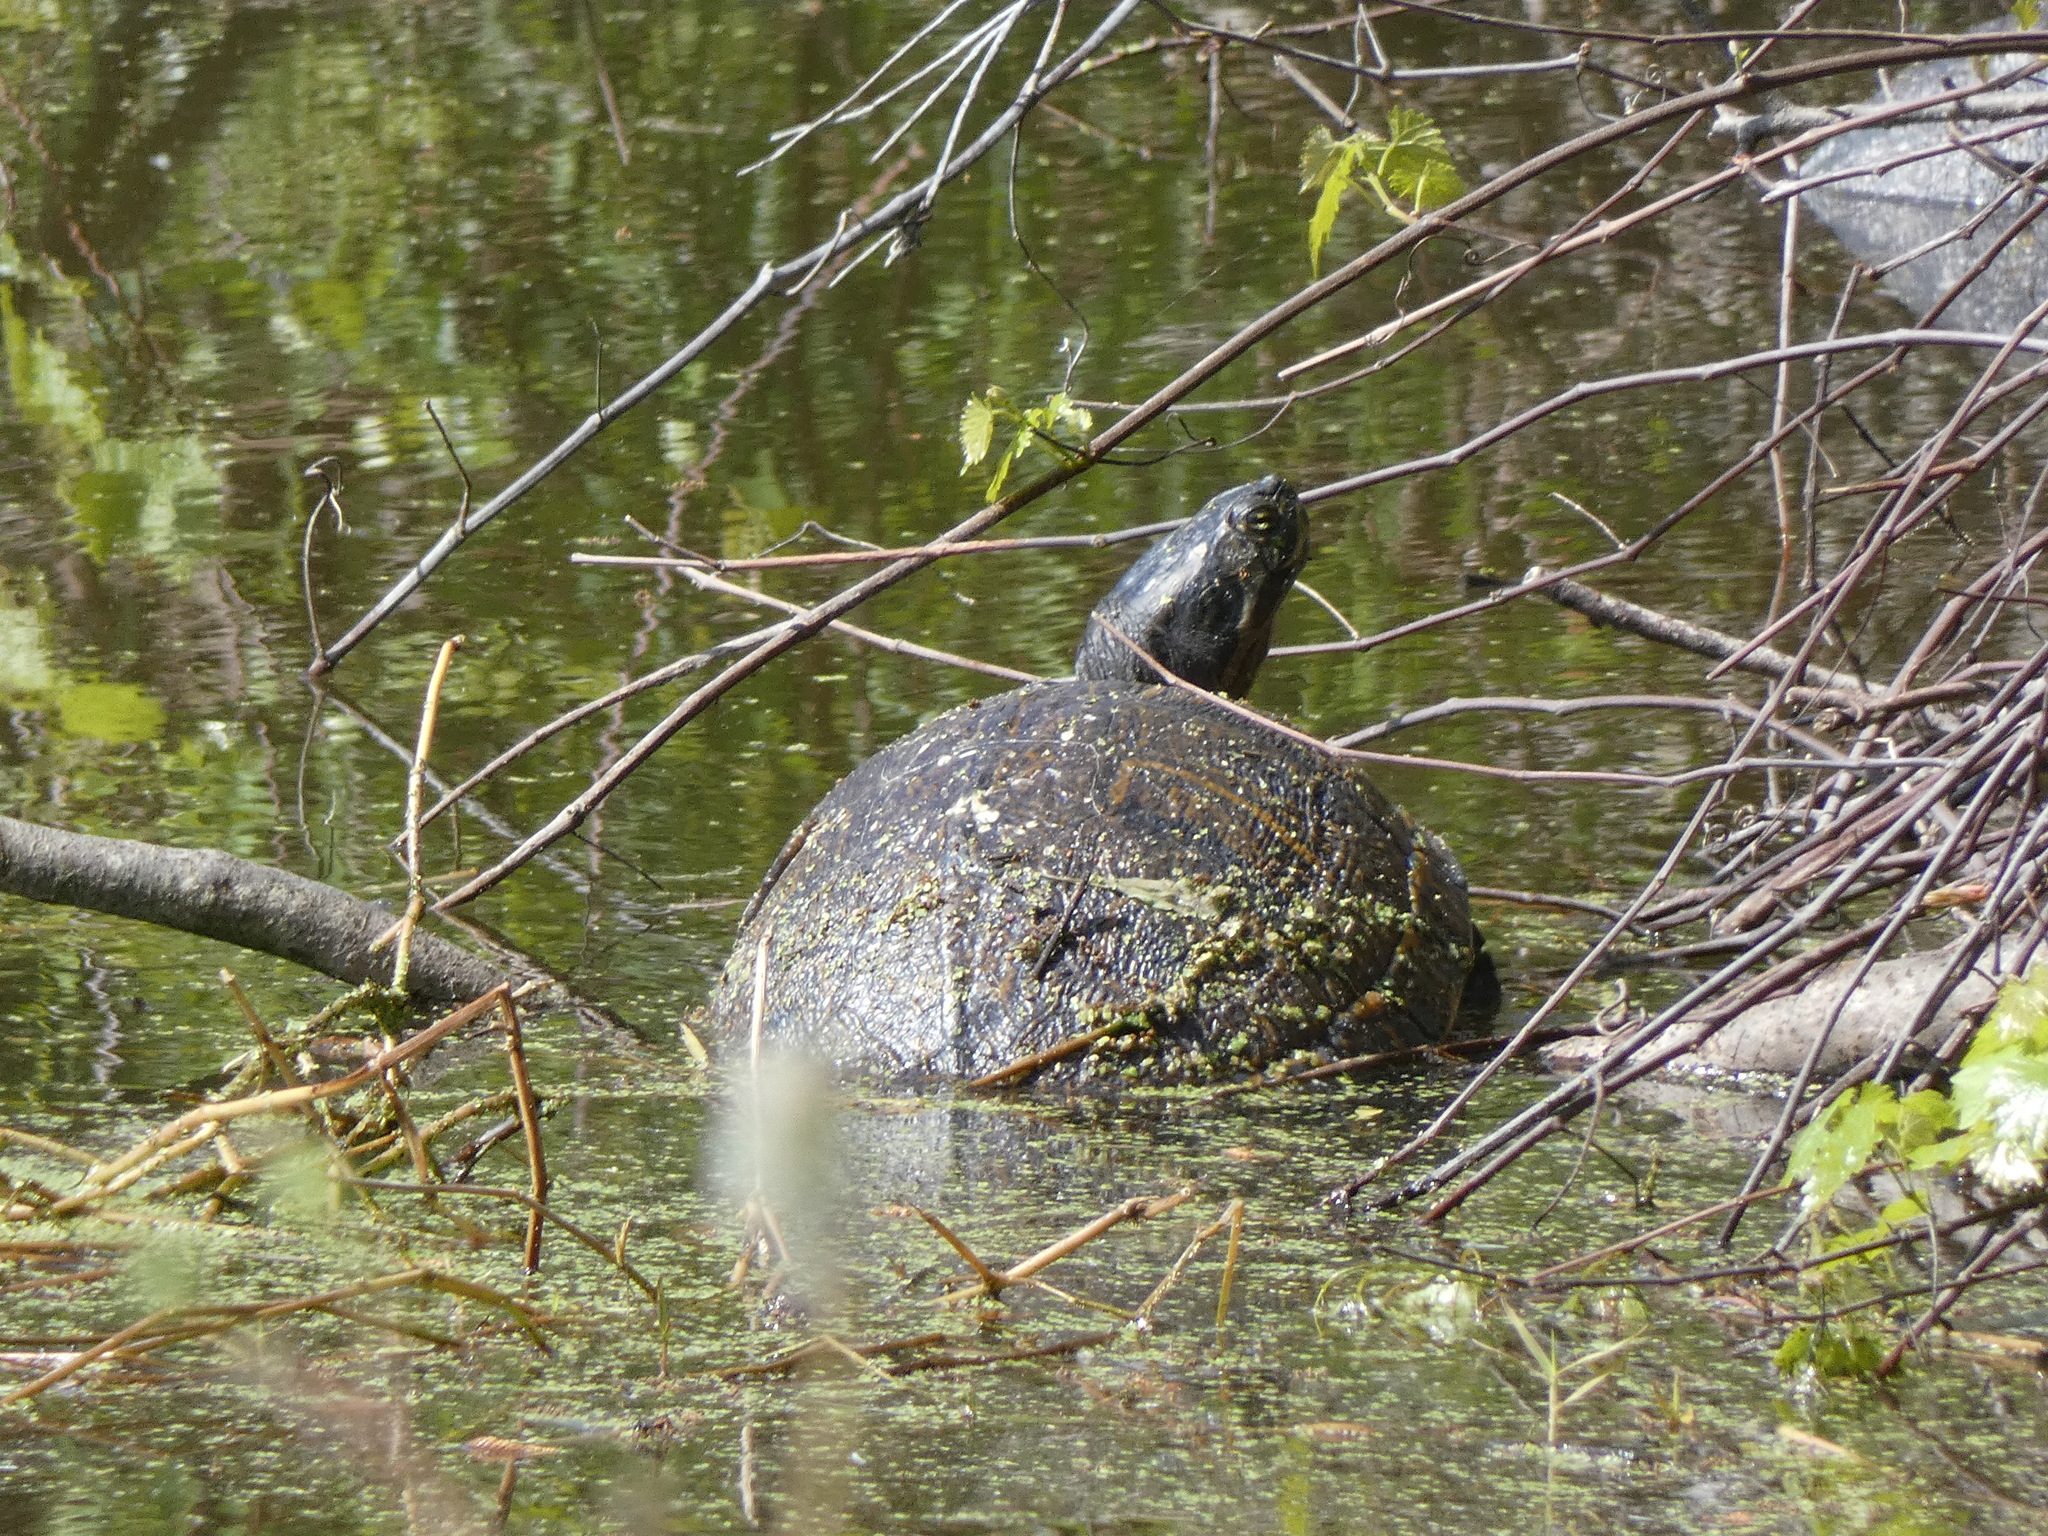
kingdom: Animalia
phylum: Chordata
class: Testudines
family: Emydidae
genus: Trachemys
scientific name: Trachemys scripta
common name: Slider
